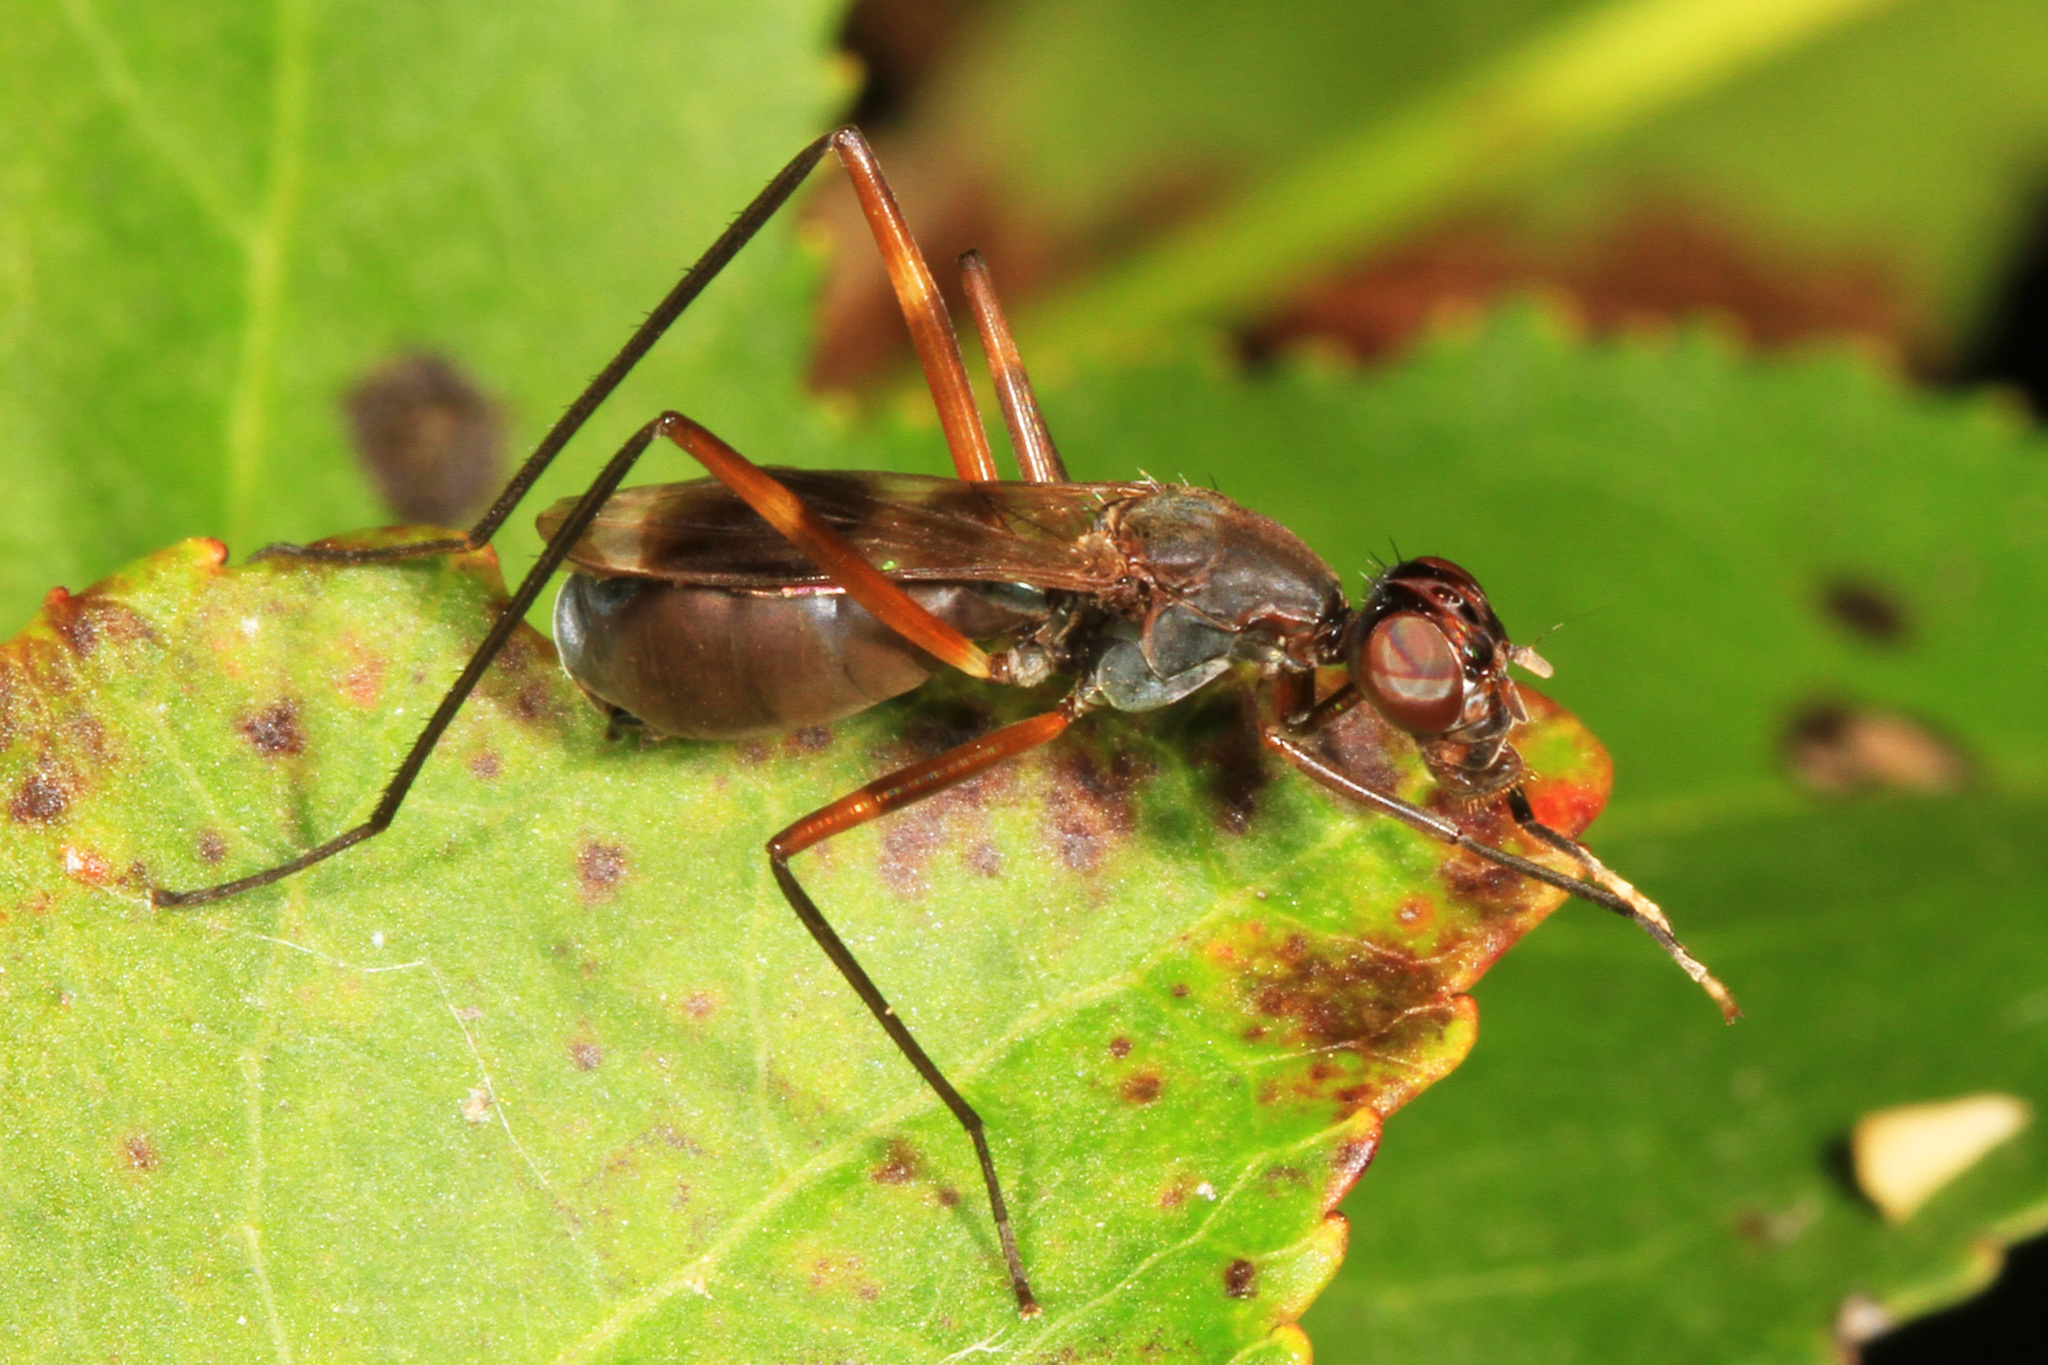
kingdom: Animalia
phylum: Arthropoda
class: Insecta
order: Diptera
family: Micropezidae
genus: Taeniaptera
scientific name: Taeniaptera trivittata
